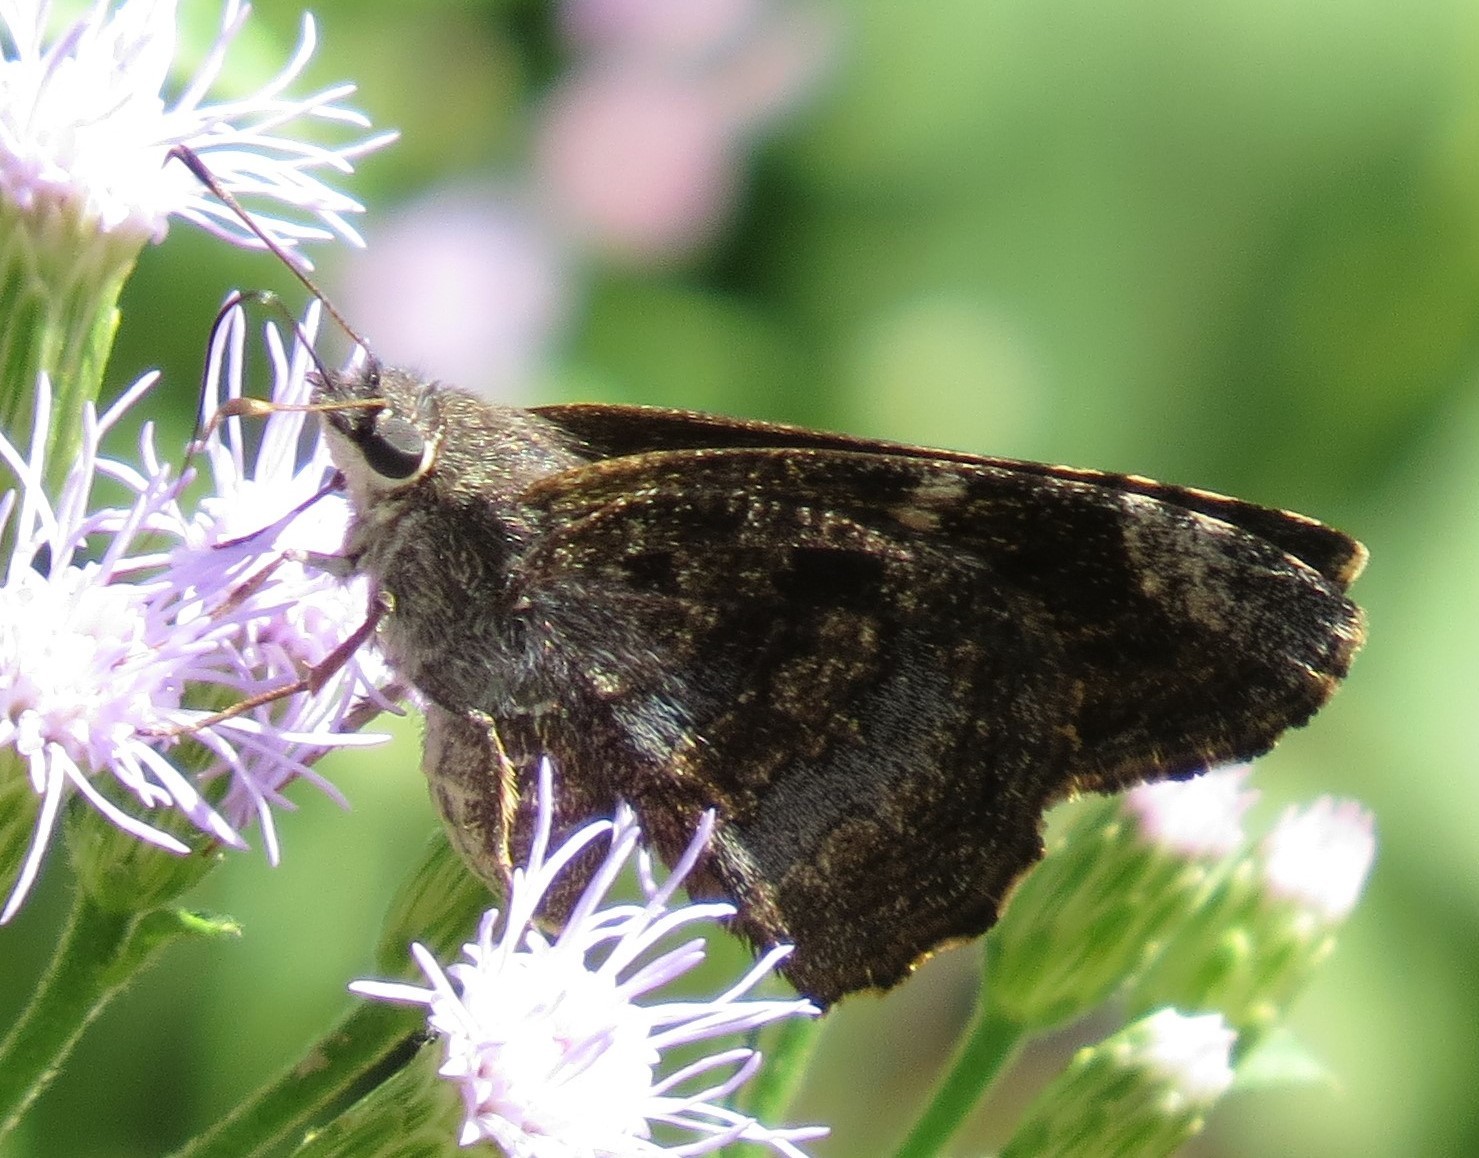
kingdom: Animalia
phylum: Arthropoda
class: Insecta
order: Lepidoptera
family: Hesperiidae
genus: Caicella
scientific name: Caicella calchas
